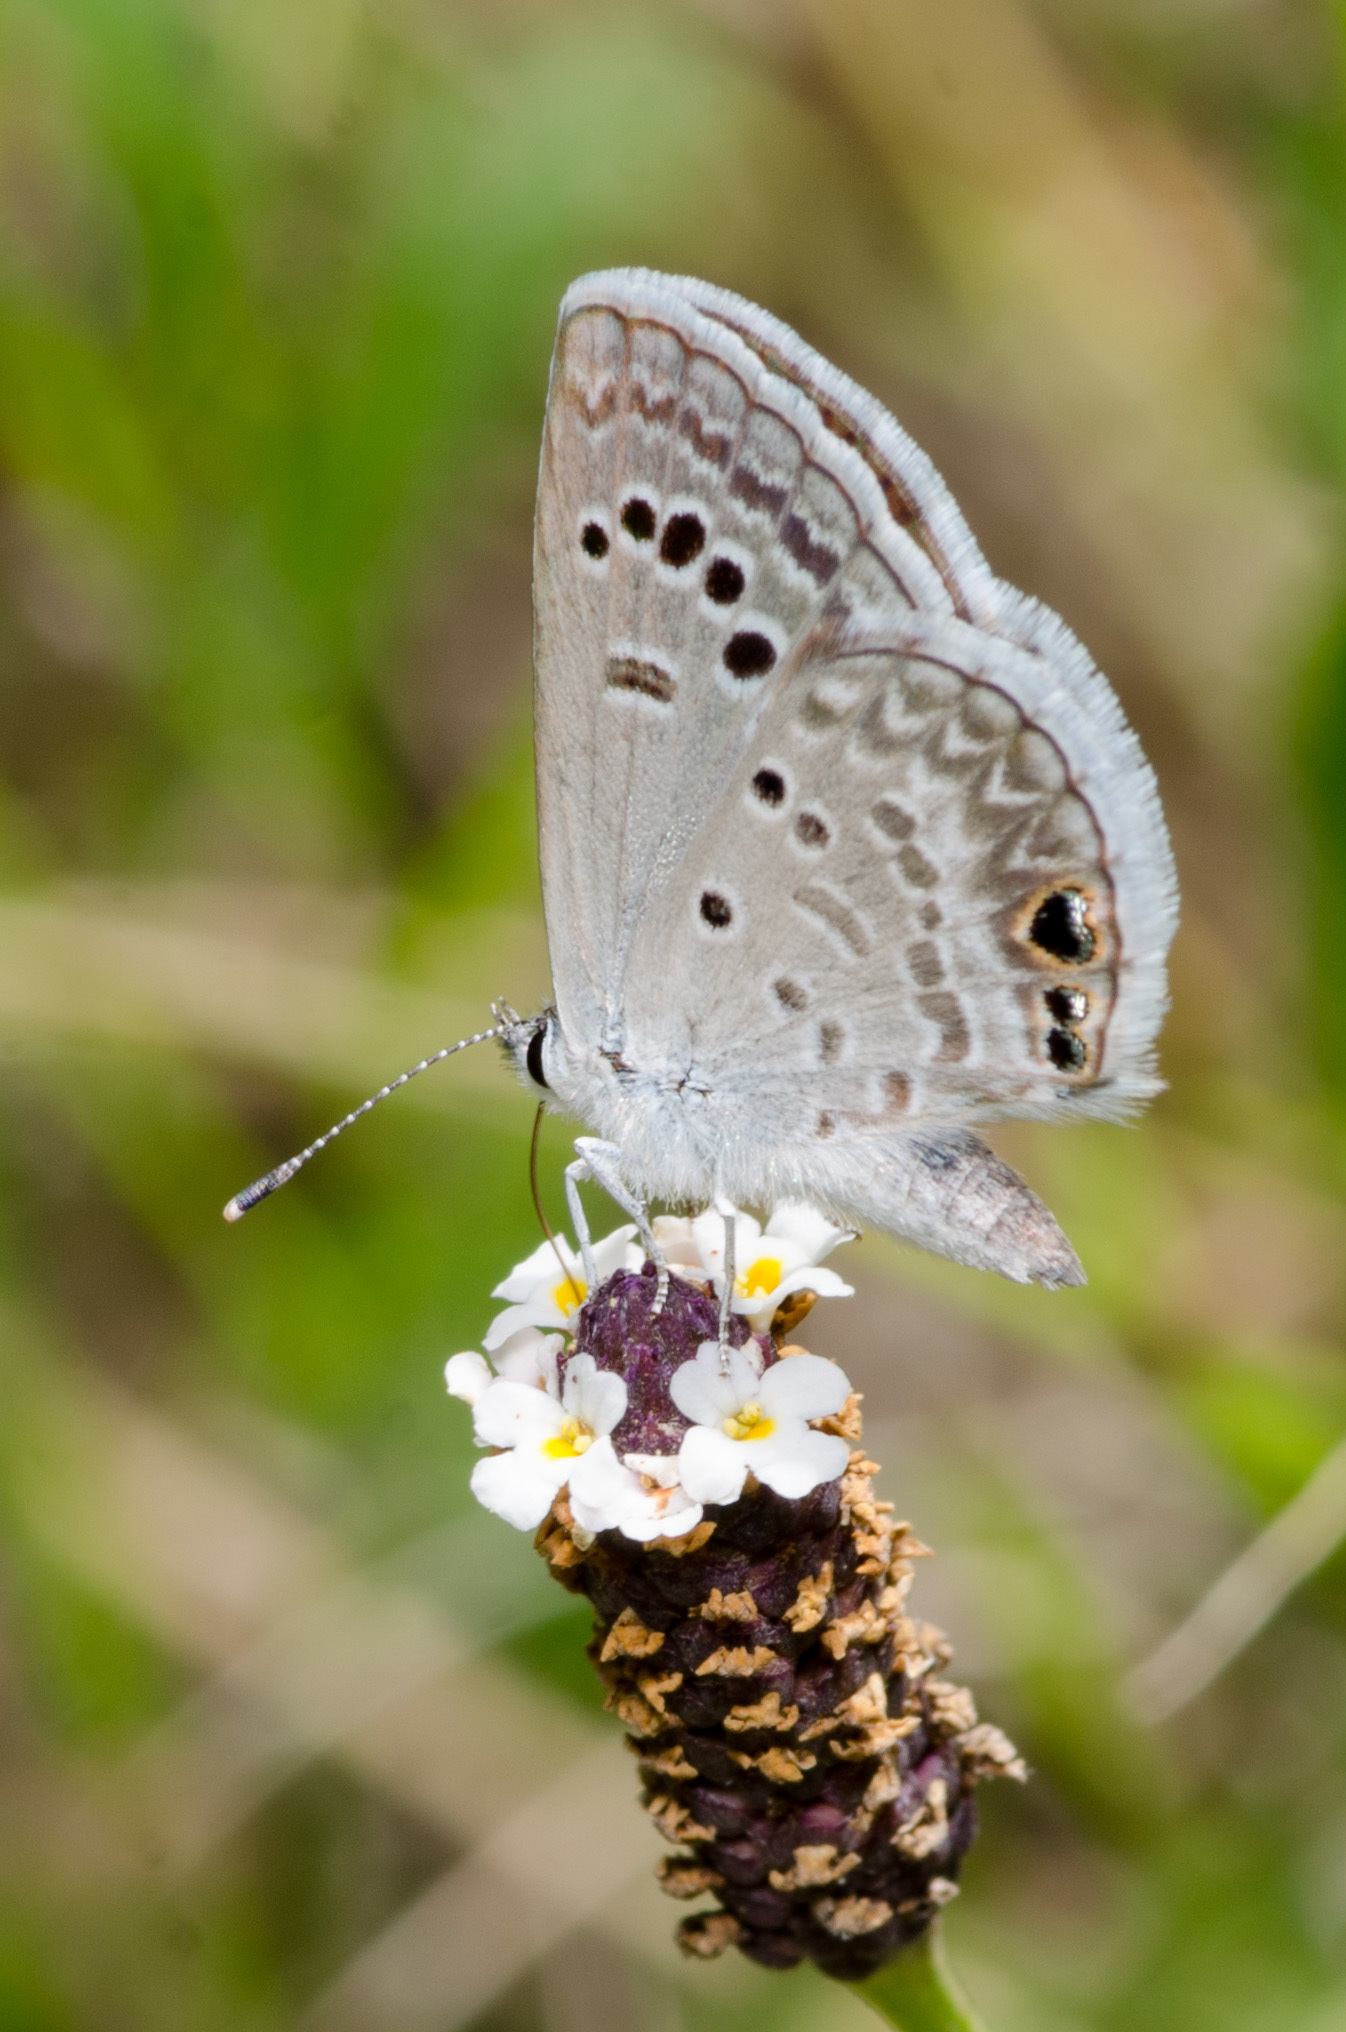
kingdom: Animalia
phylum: Arthropoda
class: Insecta
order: Lepidoptera
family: Lycaenidae
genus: Echinargus
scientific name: Echinargus isola
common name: Reakirt's blue
